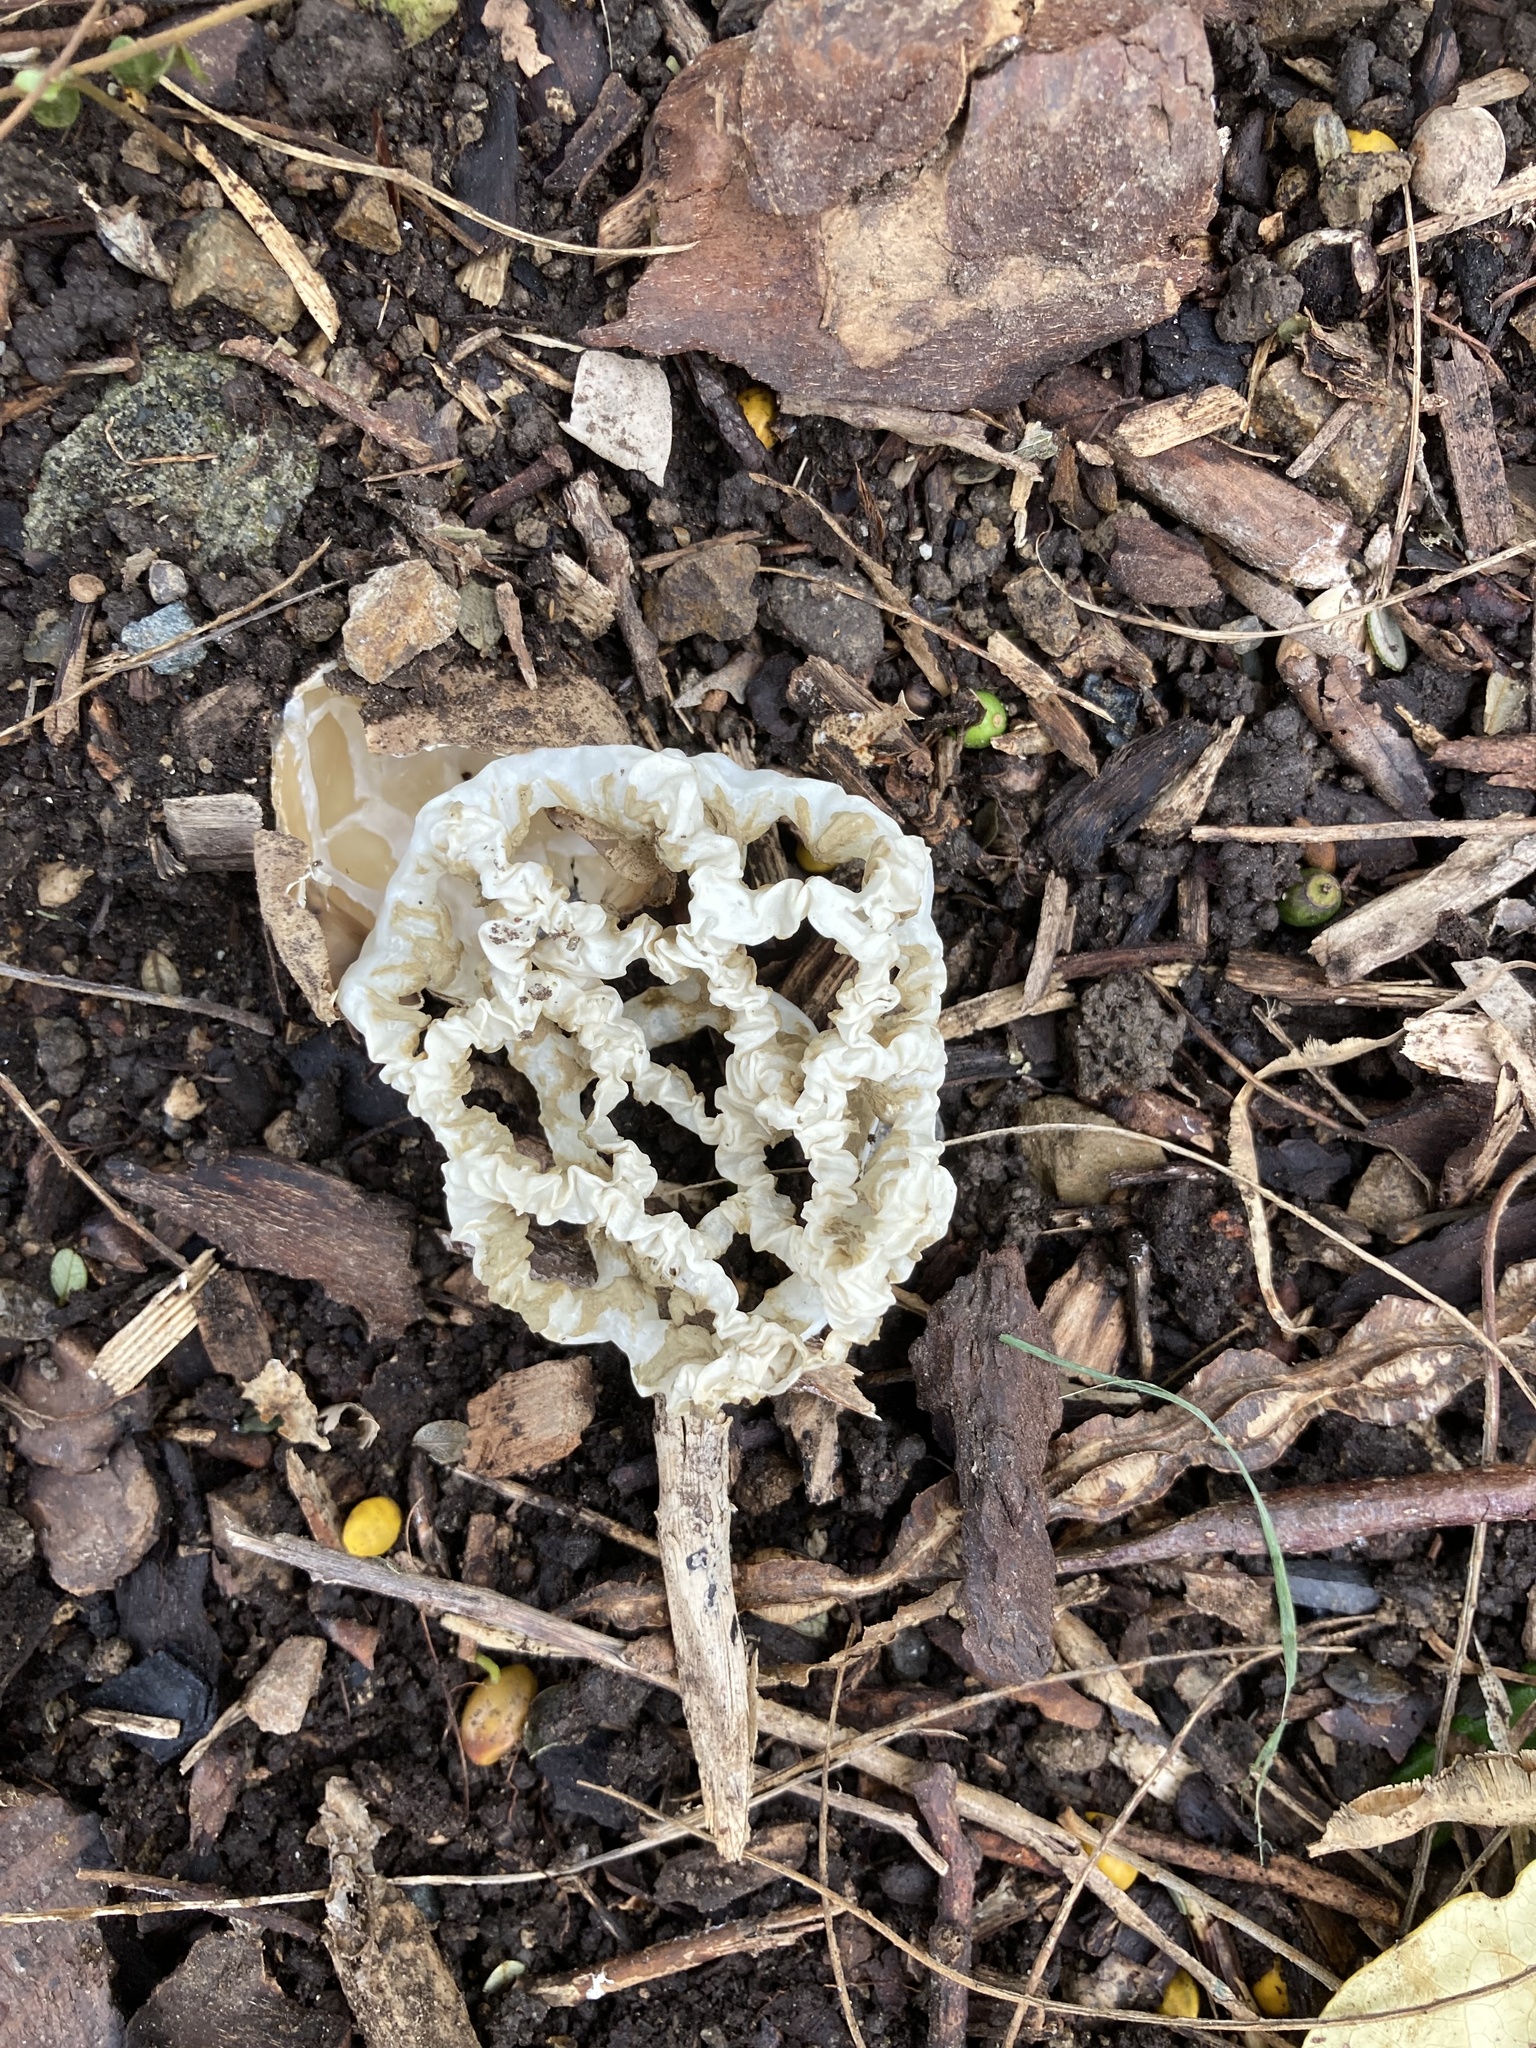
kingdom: Fungi
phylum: Basidiomycota
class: Agaricomycetes
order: Phallales
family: Phallaceae
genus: Ileodictyon
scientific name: Ileodictyon cibarium
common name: Basket fungus
